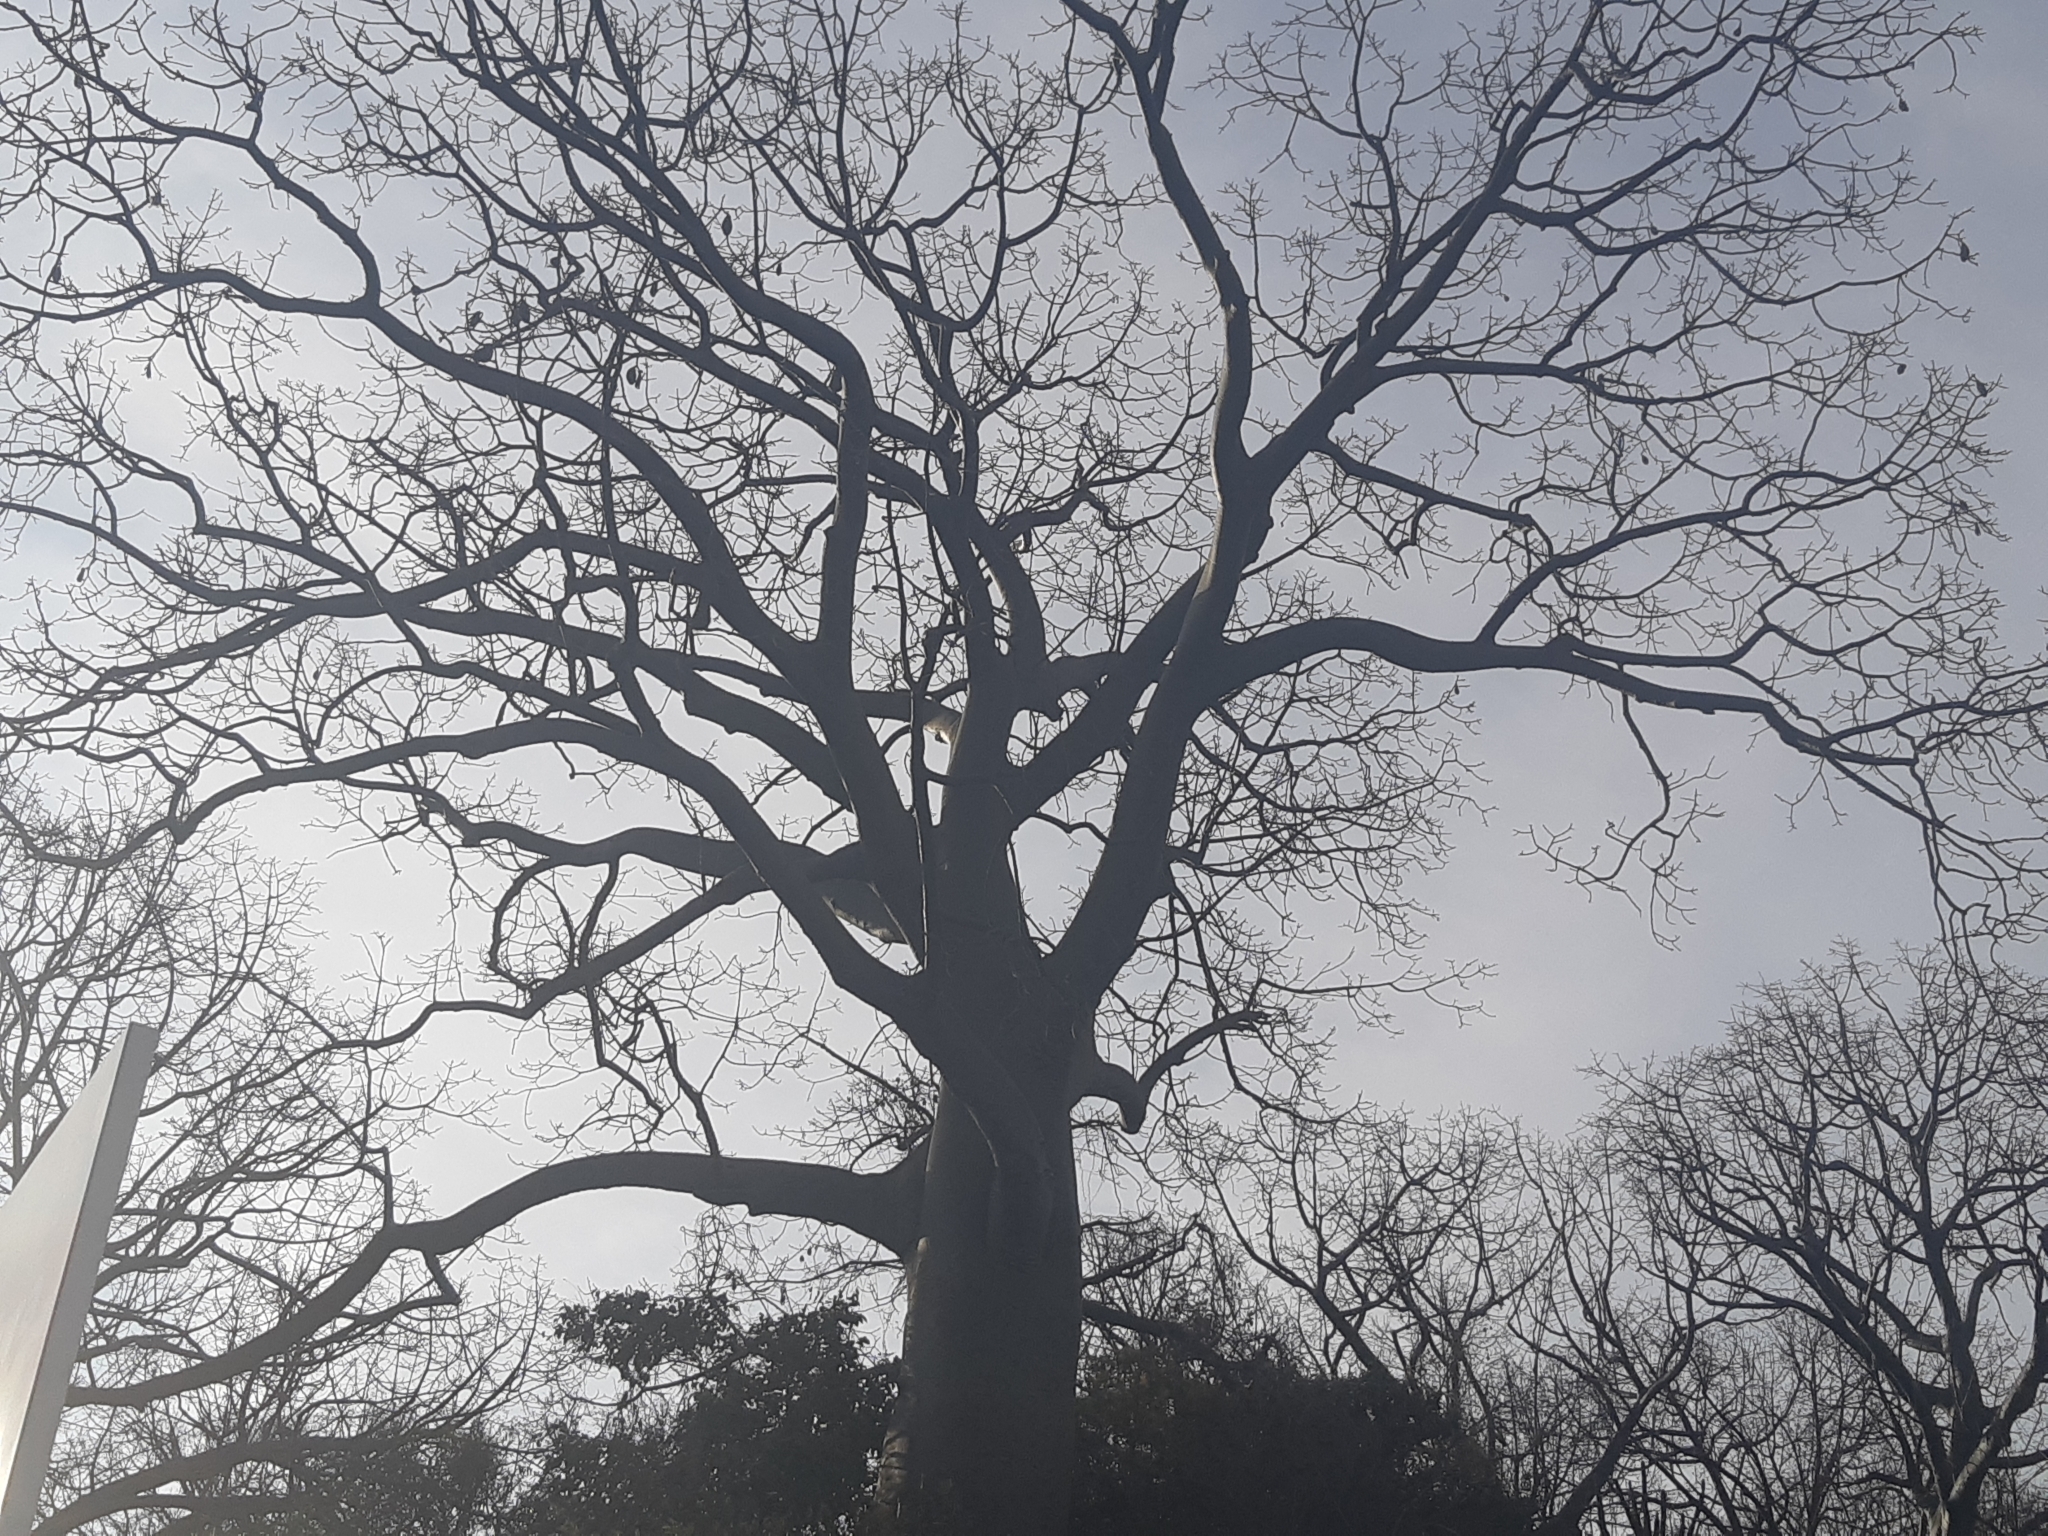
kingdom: Plantae
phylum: Tracheophyta
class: Magnoliopsida
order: Malvales
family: Malvaceae
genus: Ceiba
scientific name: Ceiba trischistandra
